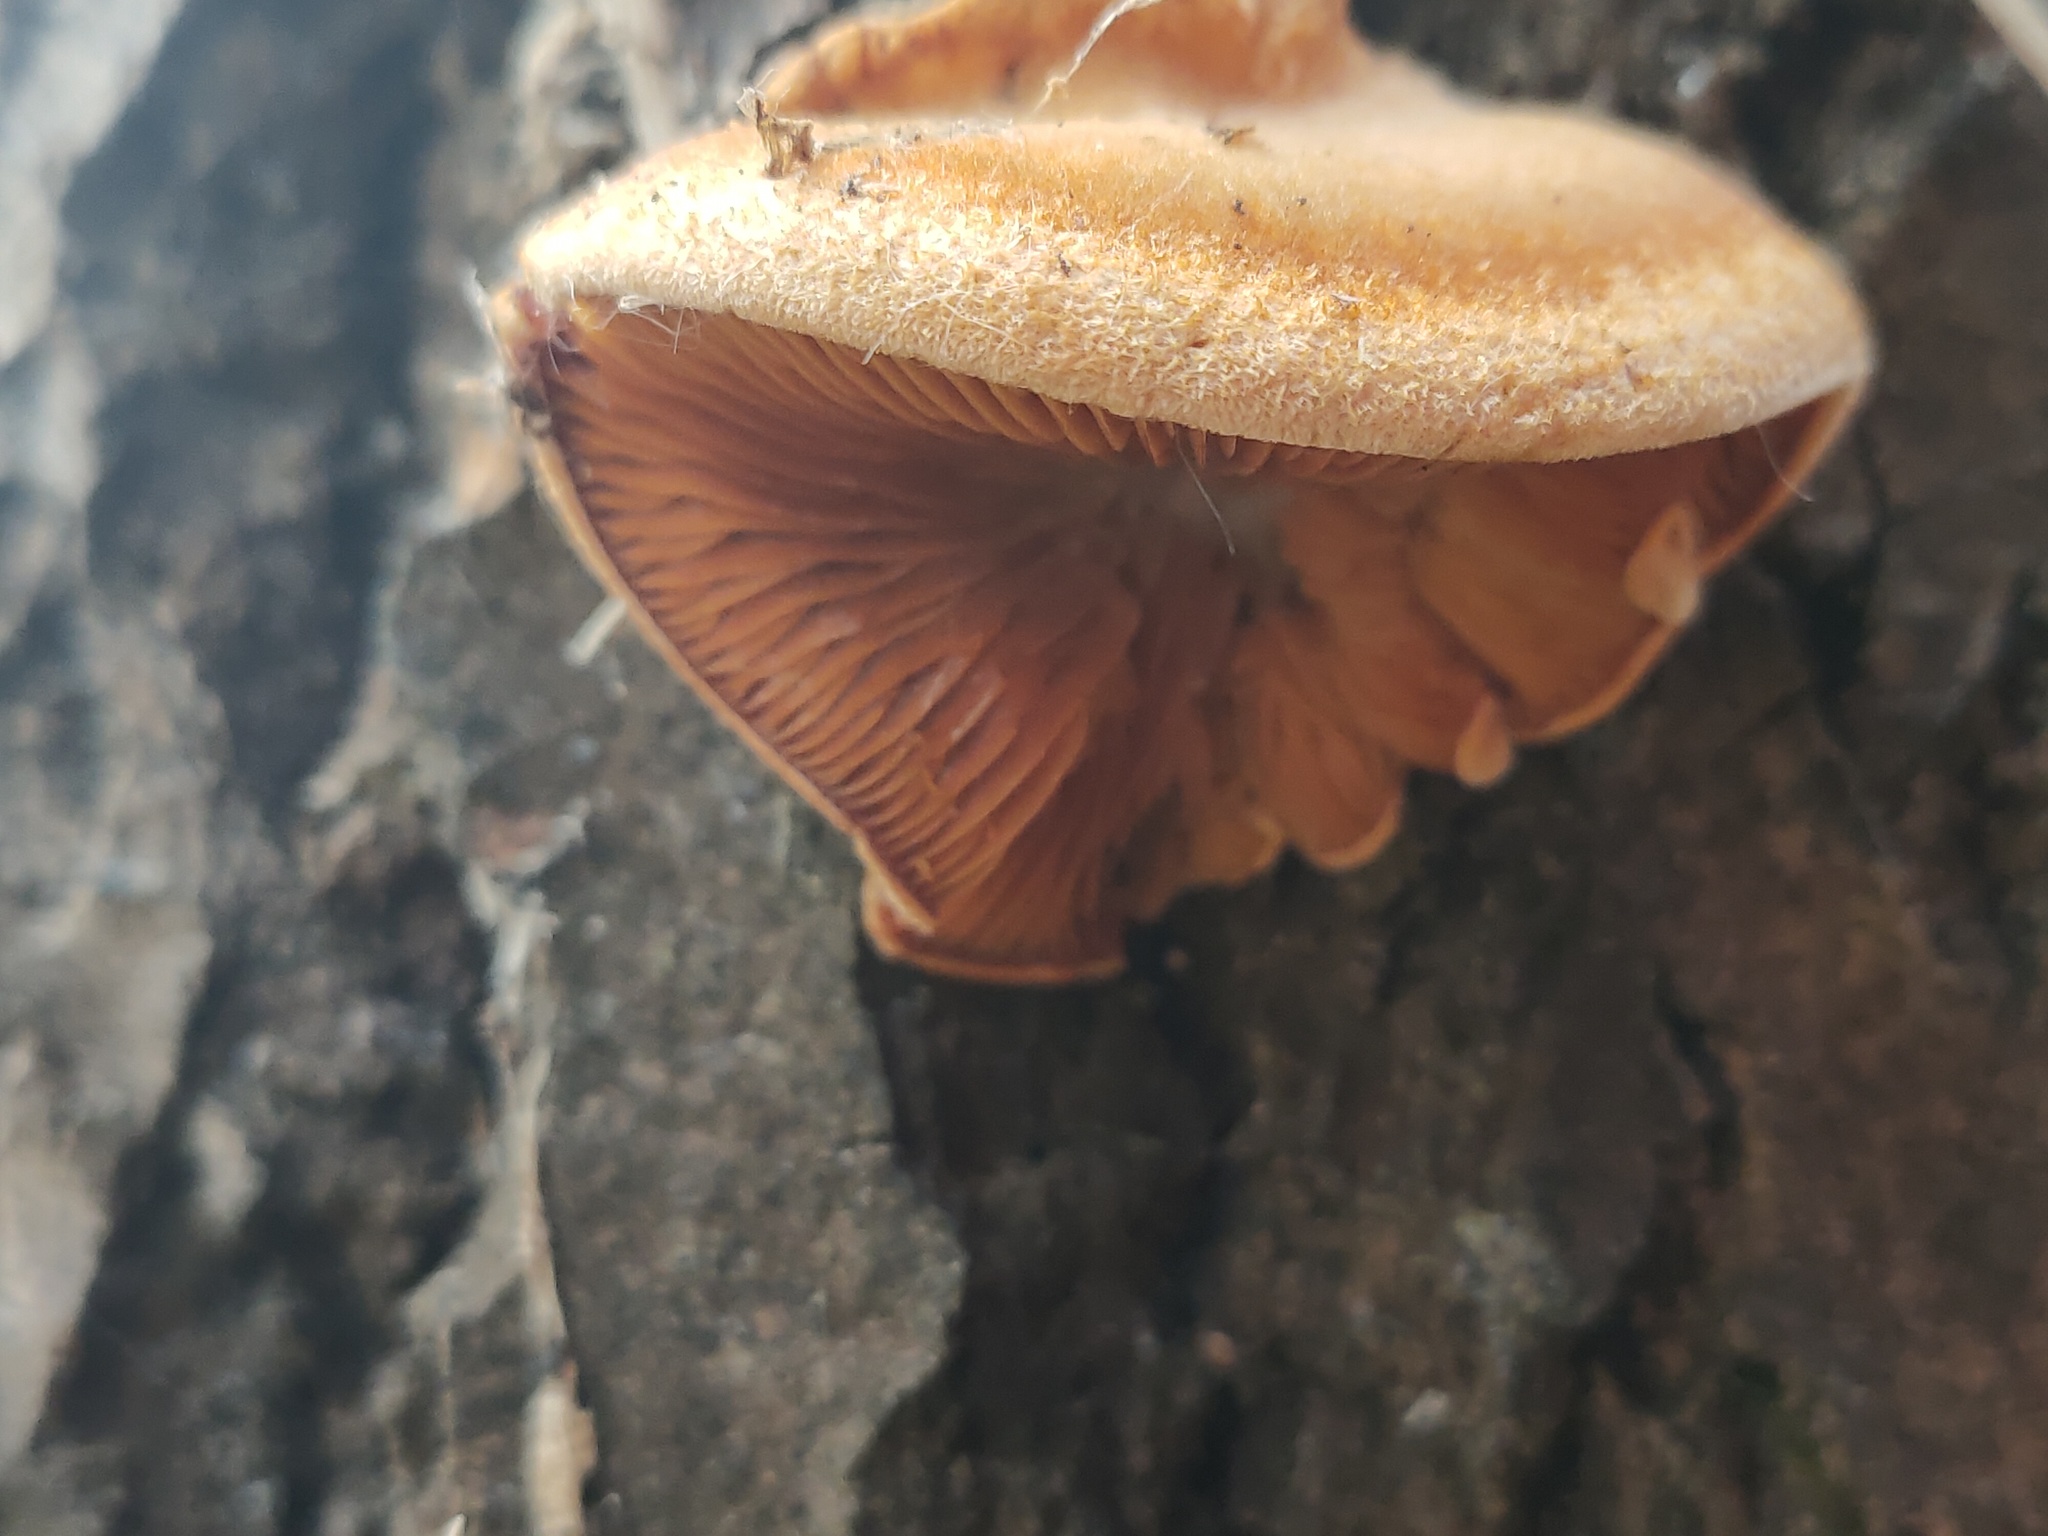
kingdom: Fungi
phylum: Basidiomycota
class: Agaricomycetes
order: Agaricales
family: Phyllotopsidaceae
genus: Phyllotopsis
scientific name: Phyllotopsis nidulans
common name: Orange mock oyster
